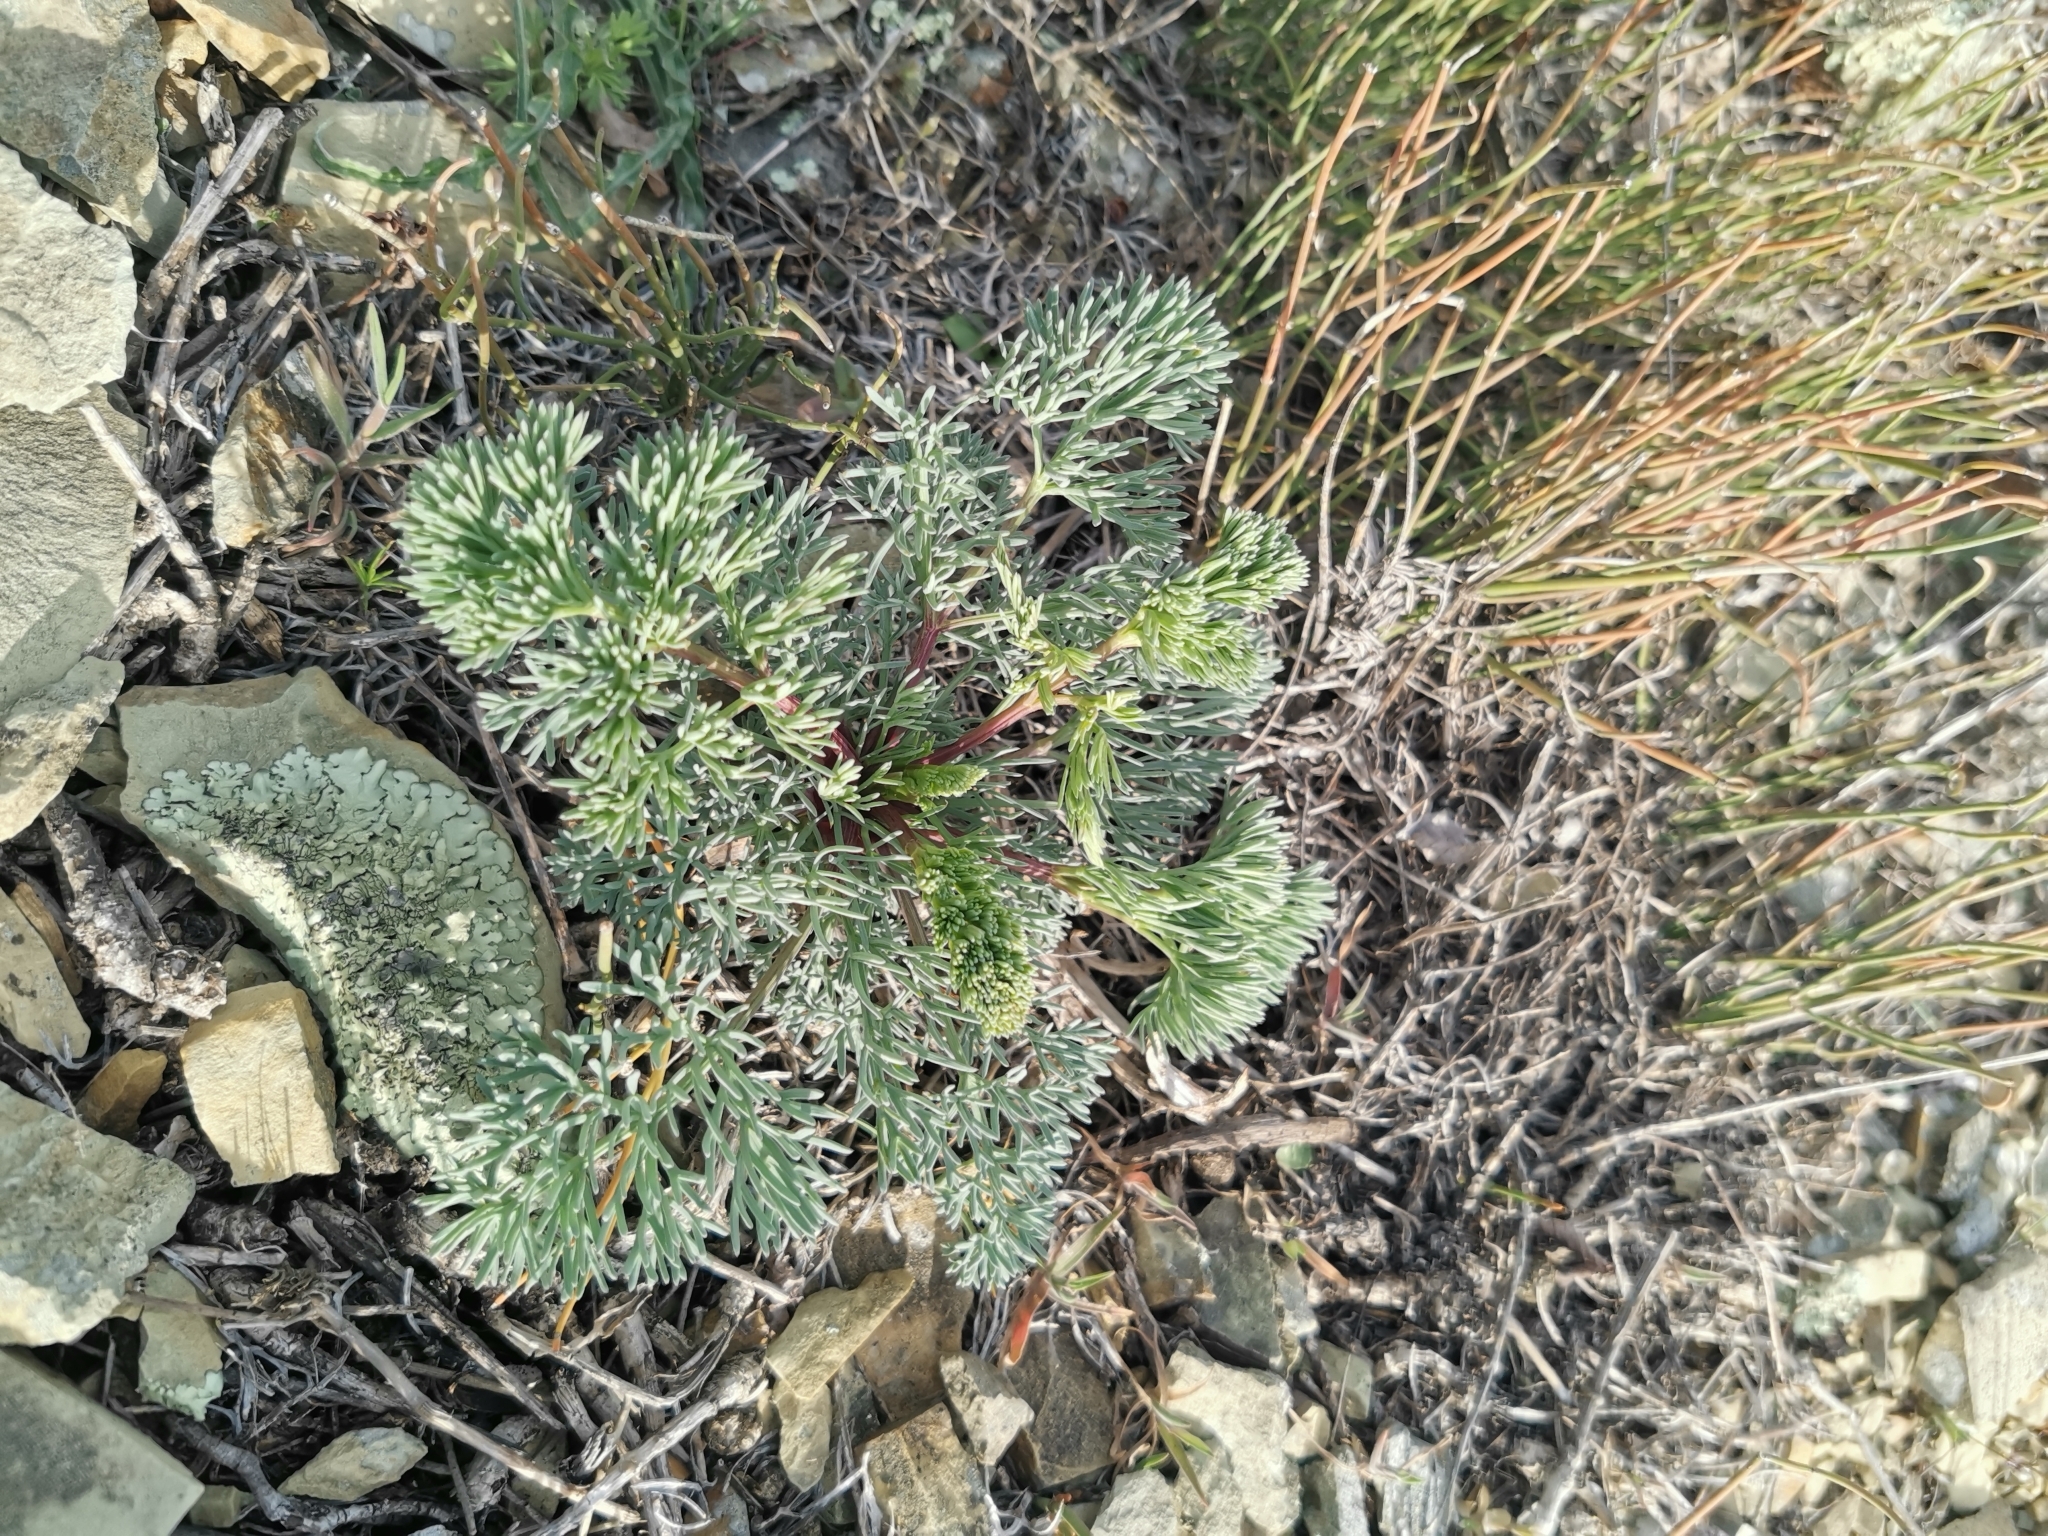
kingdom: Plantae
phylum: Tracheophyta
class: Magnoliopsida
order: Apiales
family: Apiaceae
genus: Seseli
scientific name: Seseli ponticum
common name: Pontic seseli
